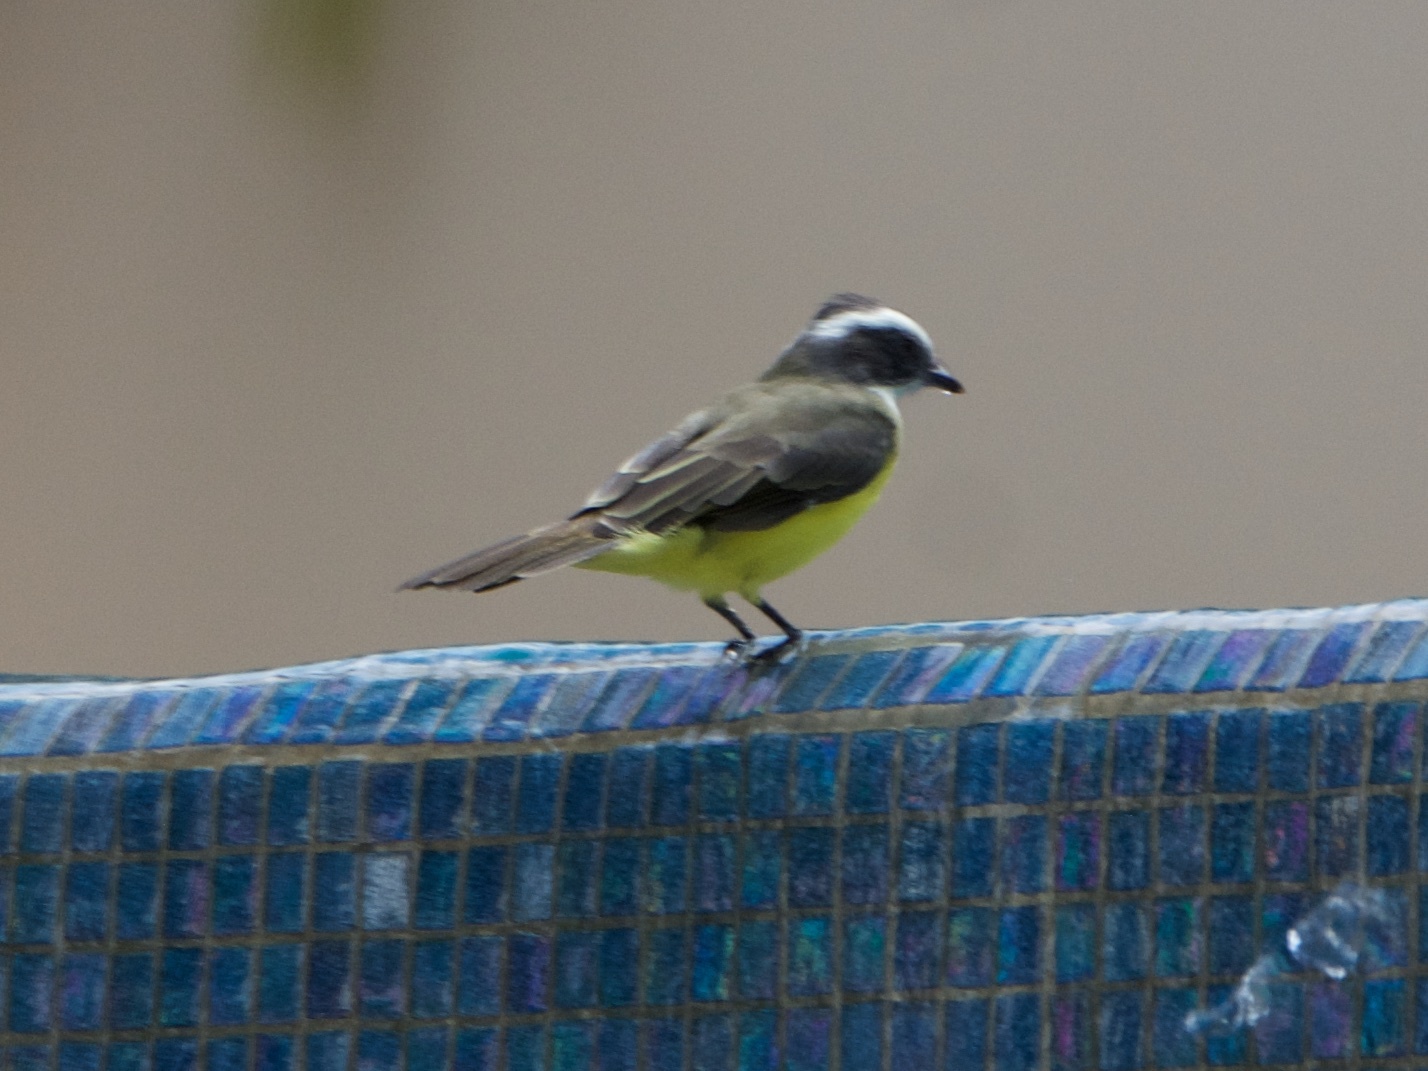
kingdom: Animalia
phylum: Chordata
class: Aves
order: Passeriformes
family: Tyrannidae
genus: Myiozetetes
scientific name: Myiozetetes similis
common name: Social flycatcher
